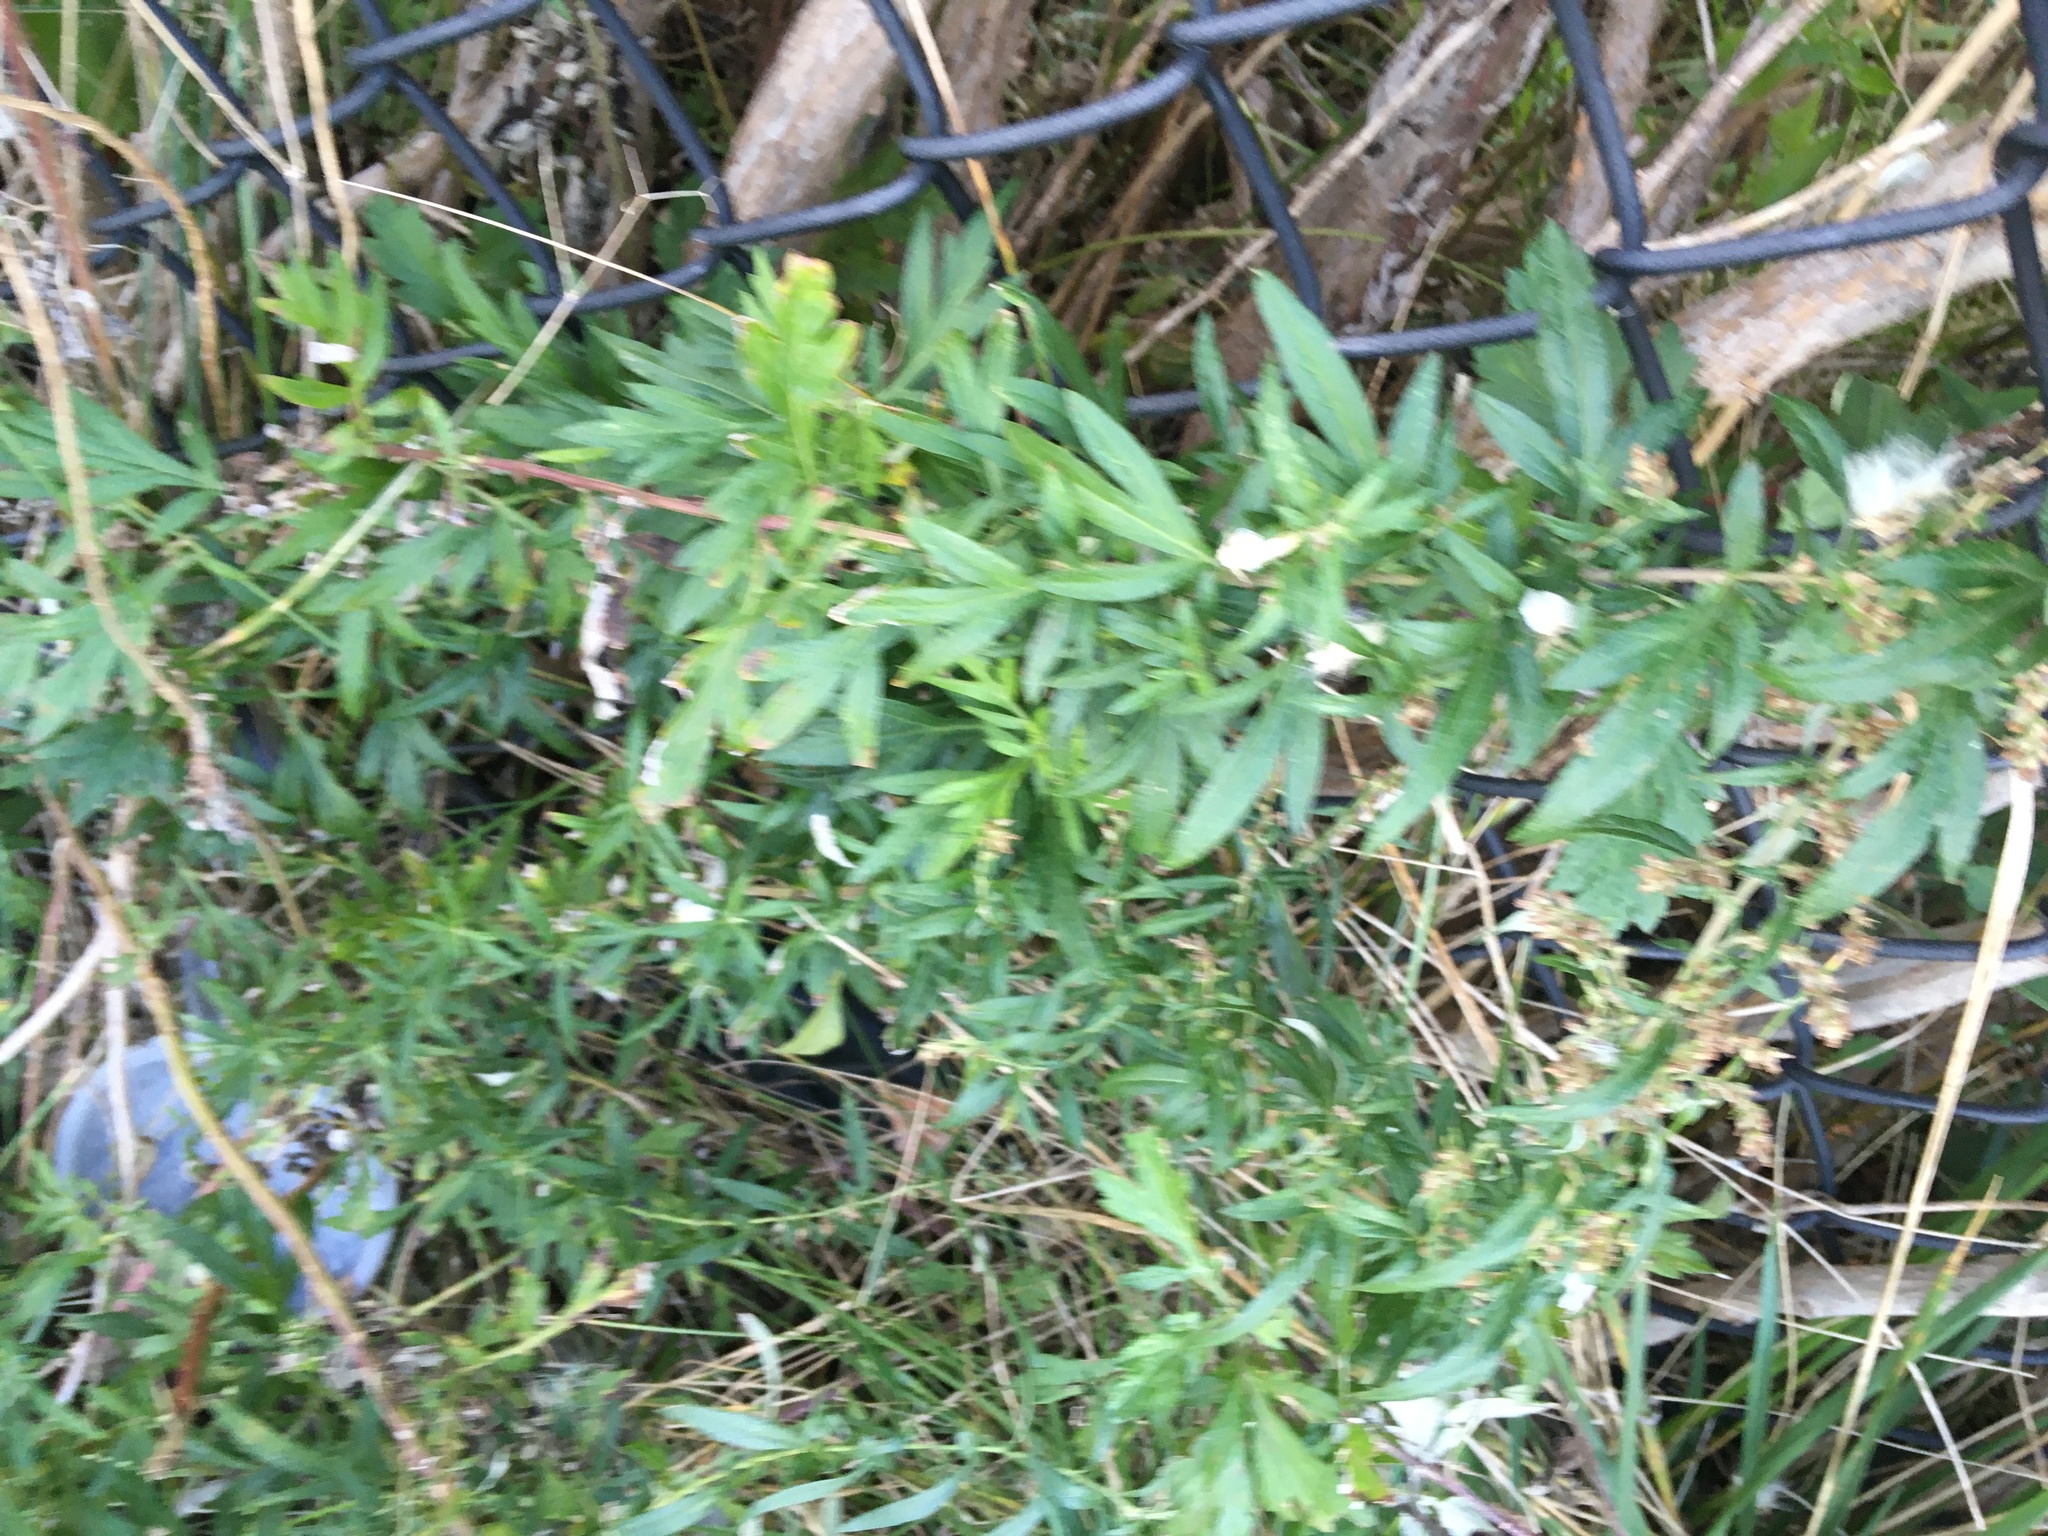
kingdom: Plantae
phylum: Tracheophyta
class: Magnoliopsida
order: Asterales
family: Asteraceae
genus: Artemisia
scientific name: Artemisia vulgaris
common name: Mugwort
